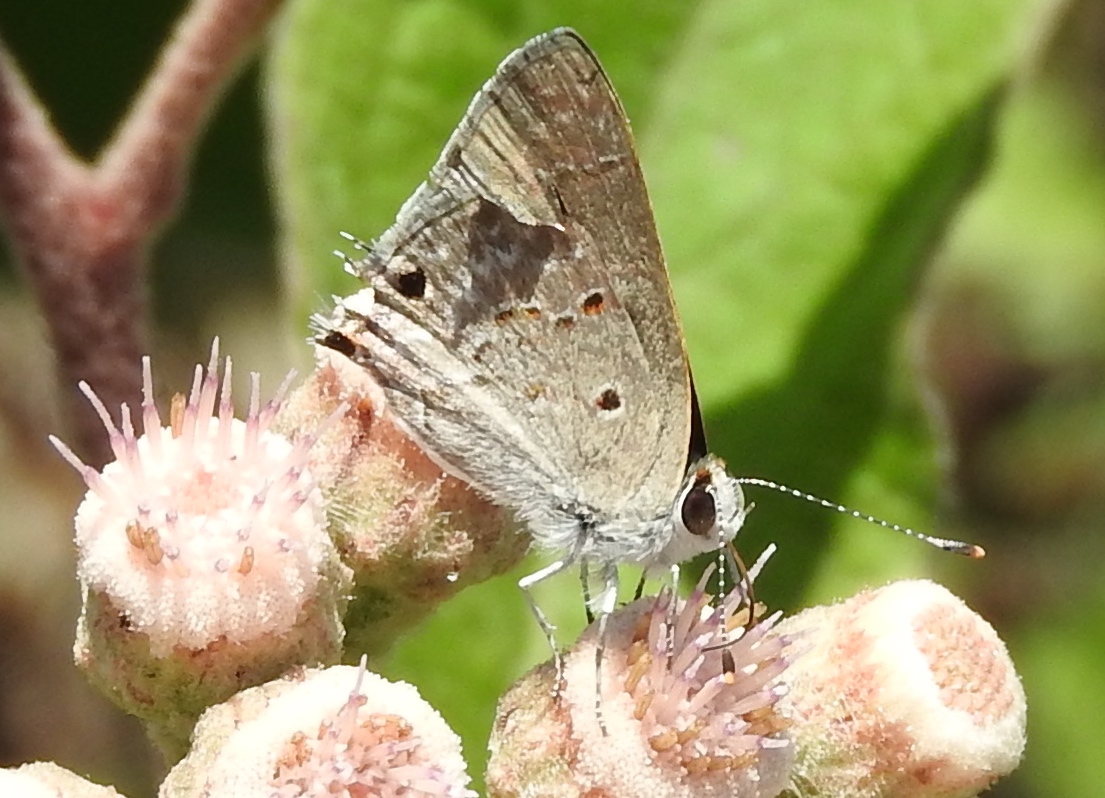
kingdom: Animalia
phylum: Arthropoda
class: Insecta
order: Lepidoptera
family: Lycaenidae
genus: Callicista
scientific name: Callicista columella
